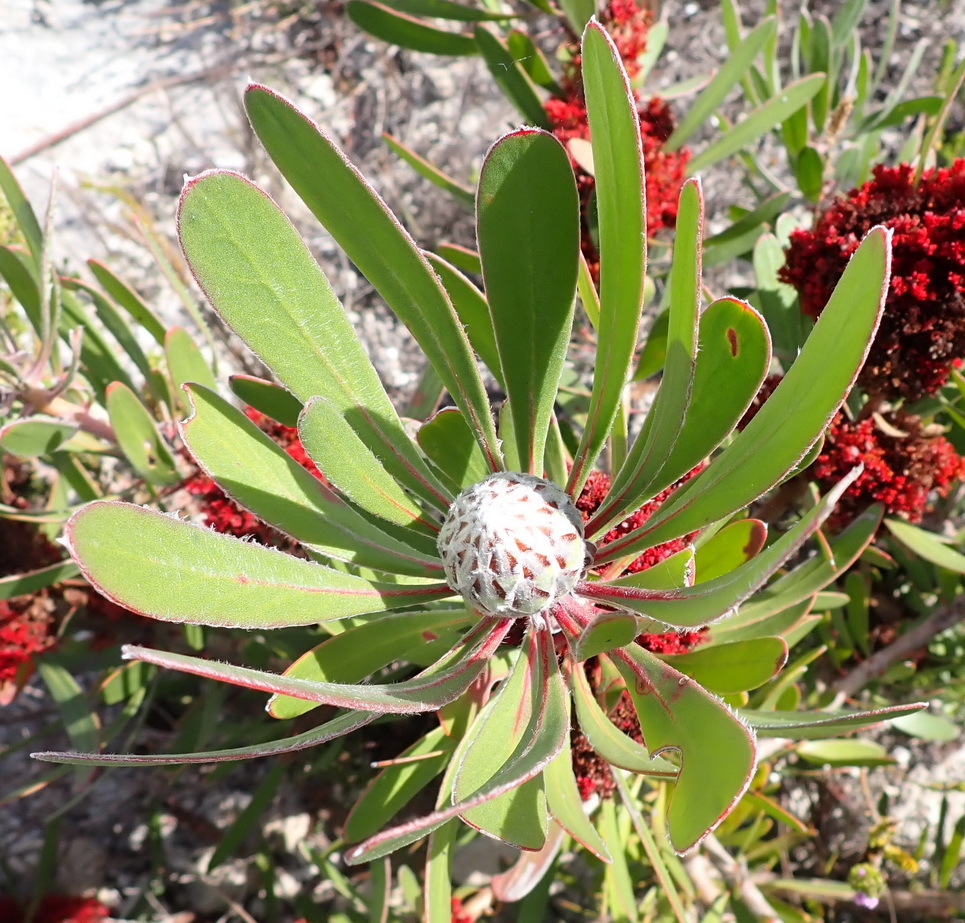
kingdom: Plantae
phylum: Tracheophyta
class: Magnoliopsida
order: Proteales
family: Proteaceae
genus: Protea
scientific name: Protea obtusifolia
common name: Bredasdorp sugarbush
